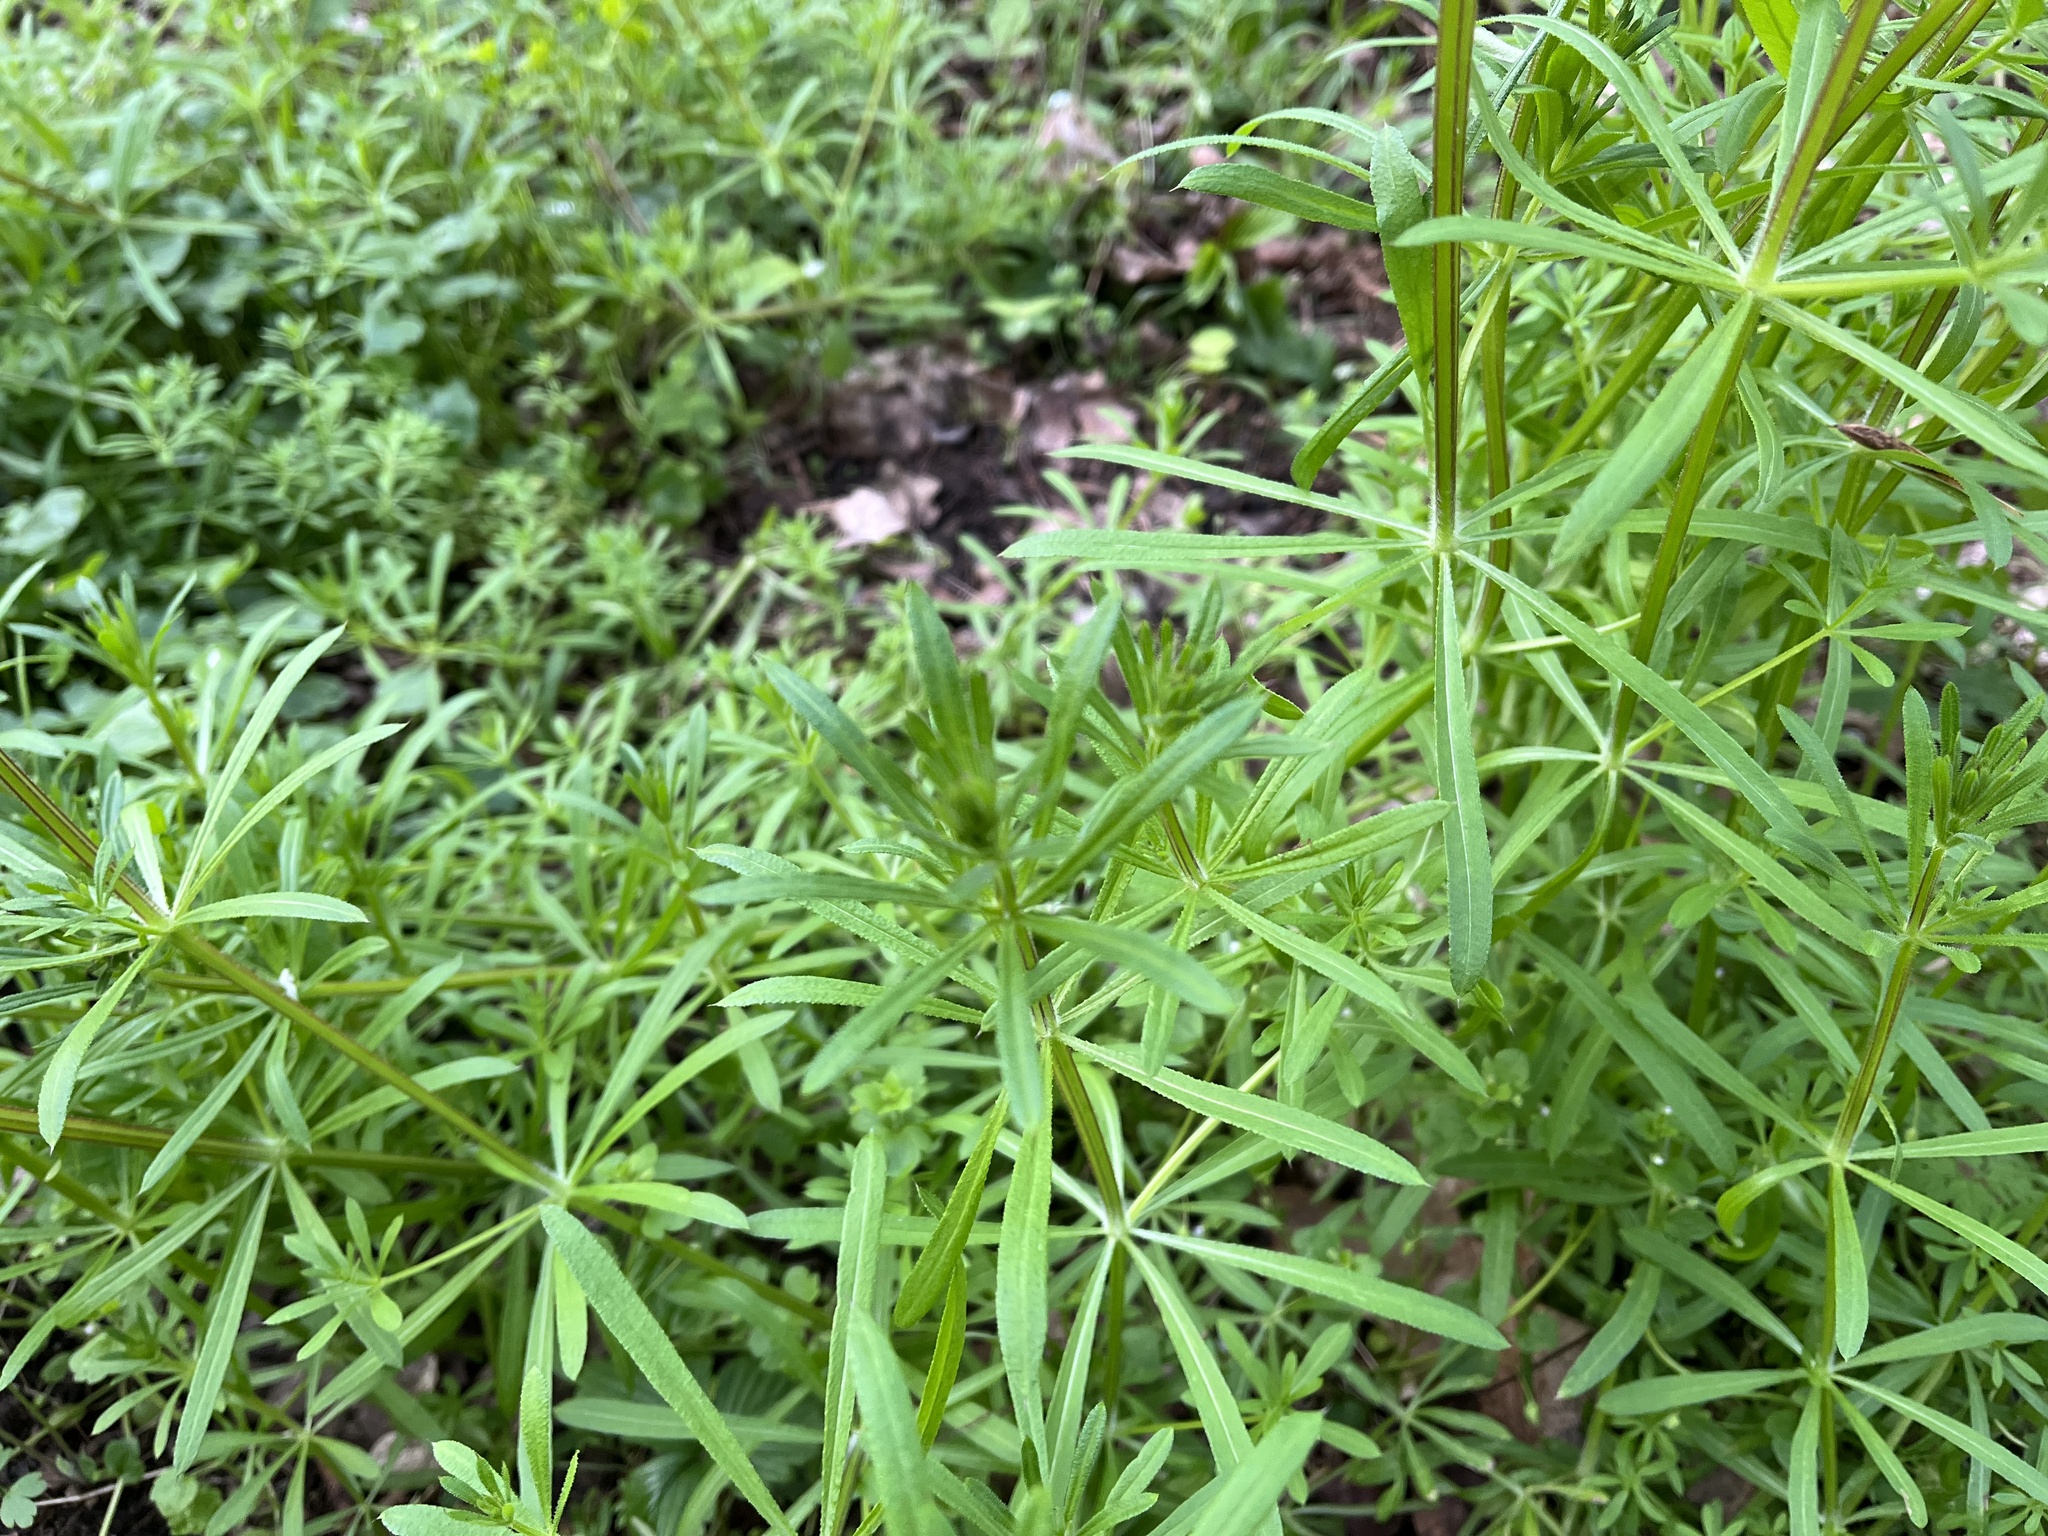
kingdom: Plantae
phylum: Tracheophyta
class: Magnoliopsida
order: Gentianales
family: Rubiaceae
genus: Galium
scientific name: Galium aparine
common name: Cleavers
